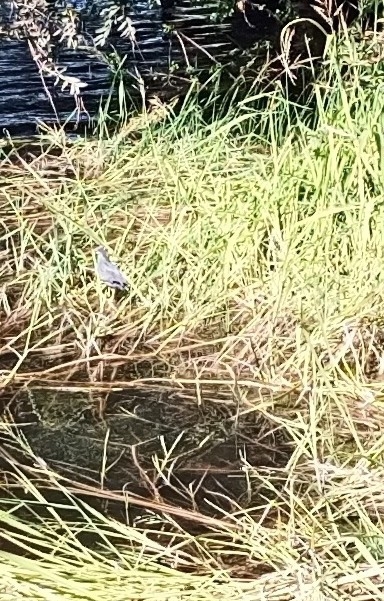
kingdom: Animalia
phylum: Chordata
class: Aves
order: Pelecaniformes
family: Ardeidae
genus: Butorides
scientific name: Butorides striata
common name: Striated heron
